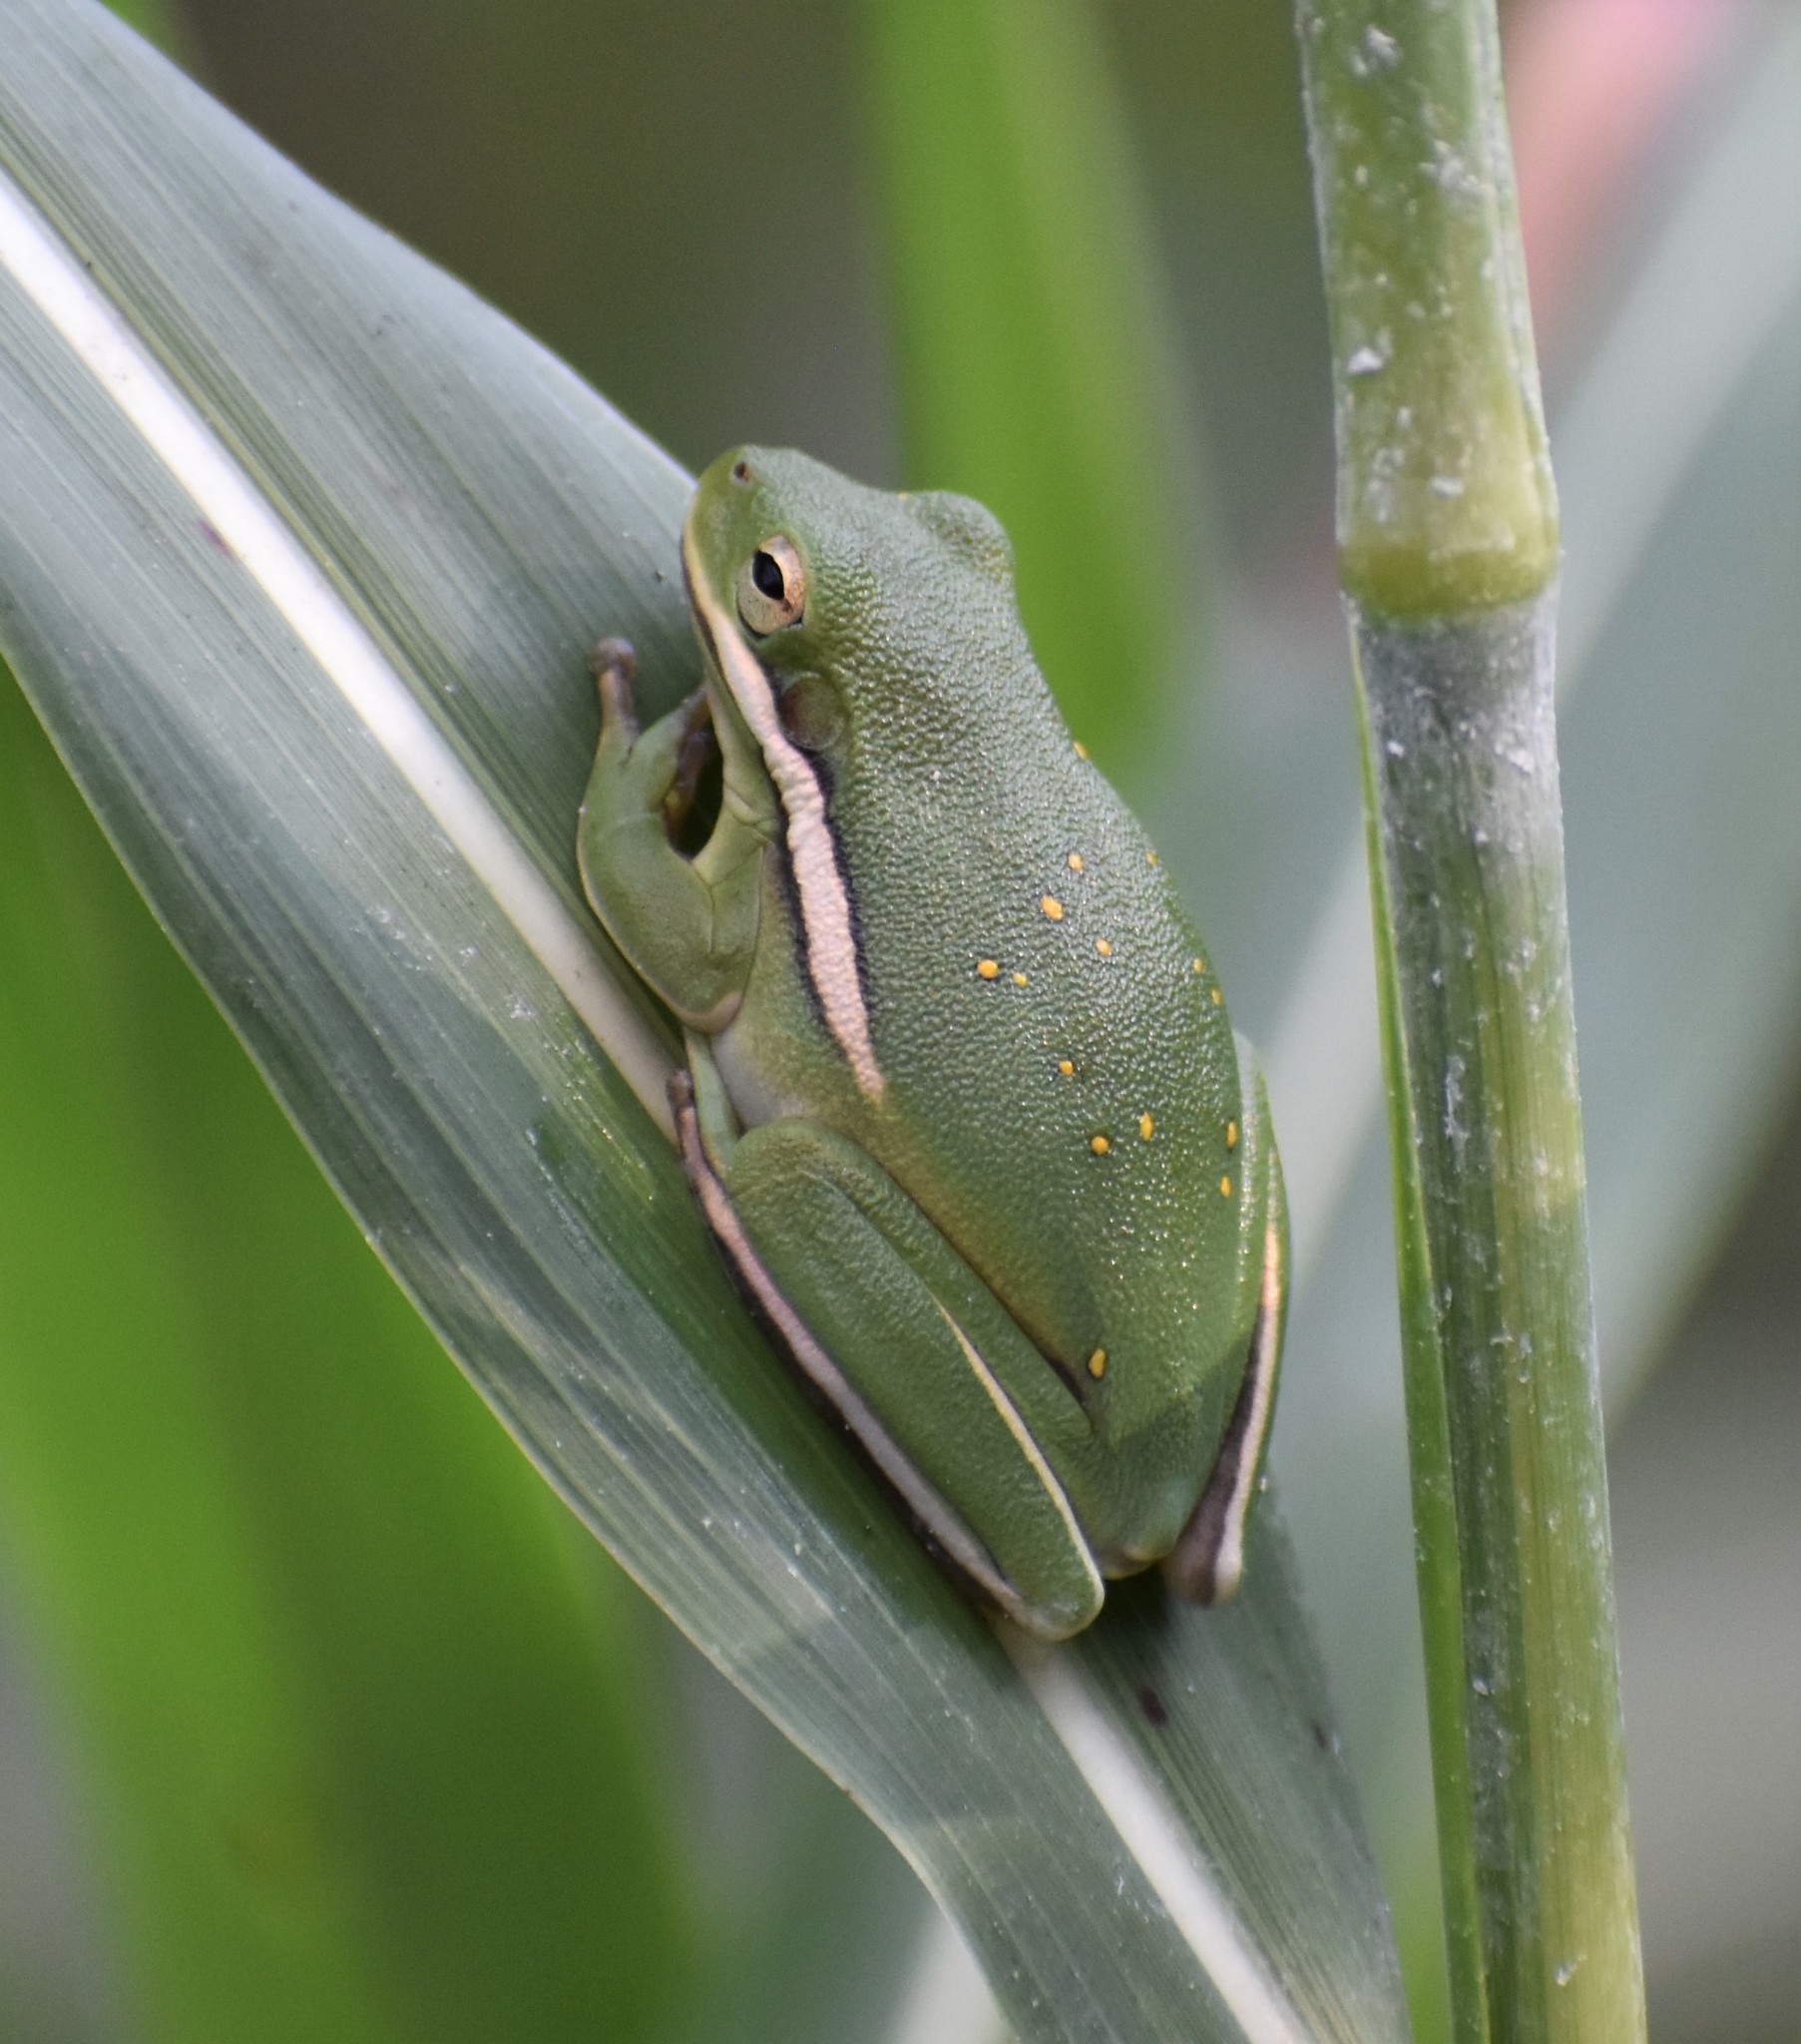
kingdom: Animalia
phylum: Chordata
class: Amphibia
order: Anura
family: Hylidae
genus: Dryophytes
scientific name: Dryophytes cinereus
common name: Green treefrog
